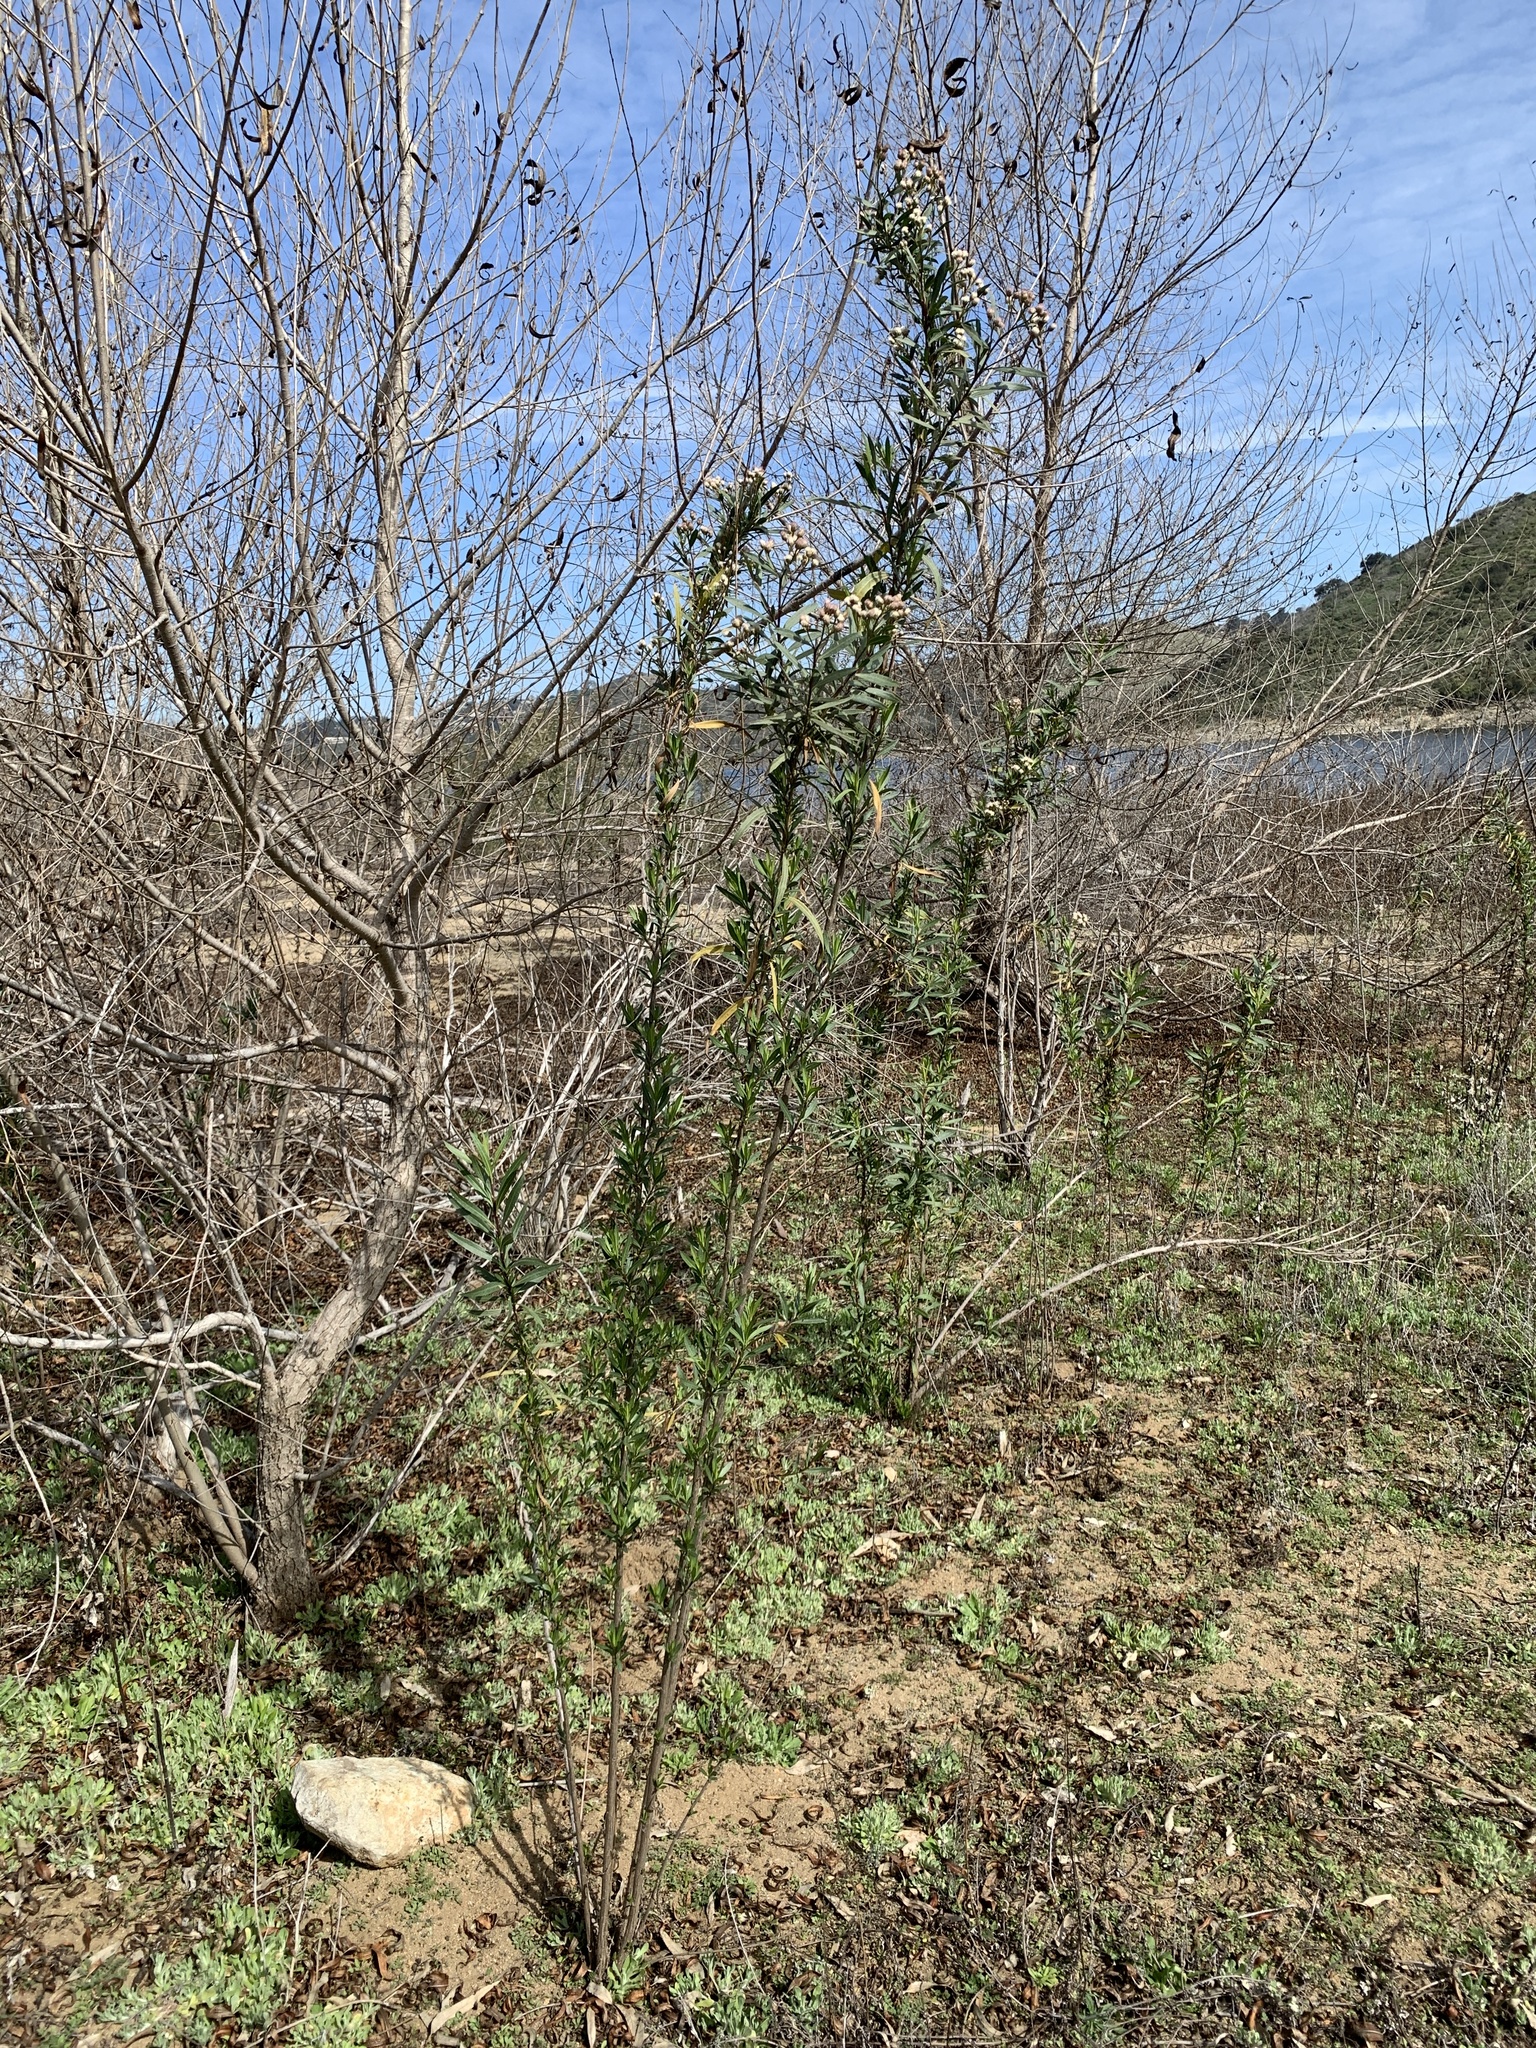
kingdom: Plantae
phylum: Tracheophyta
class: Magnoliopsida
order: Asterales
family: Asteraceae
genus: Baccharis
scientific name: Baccharis salicifolia
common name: Sticky baccharis
